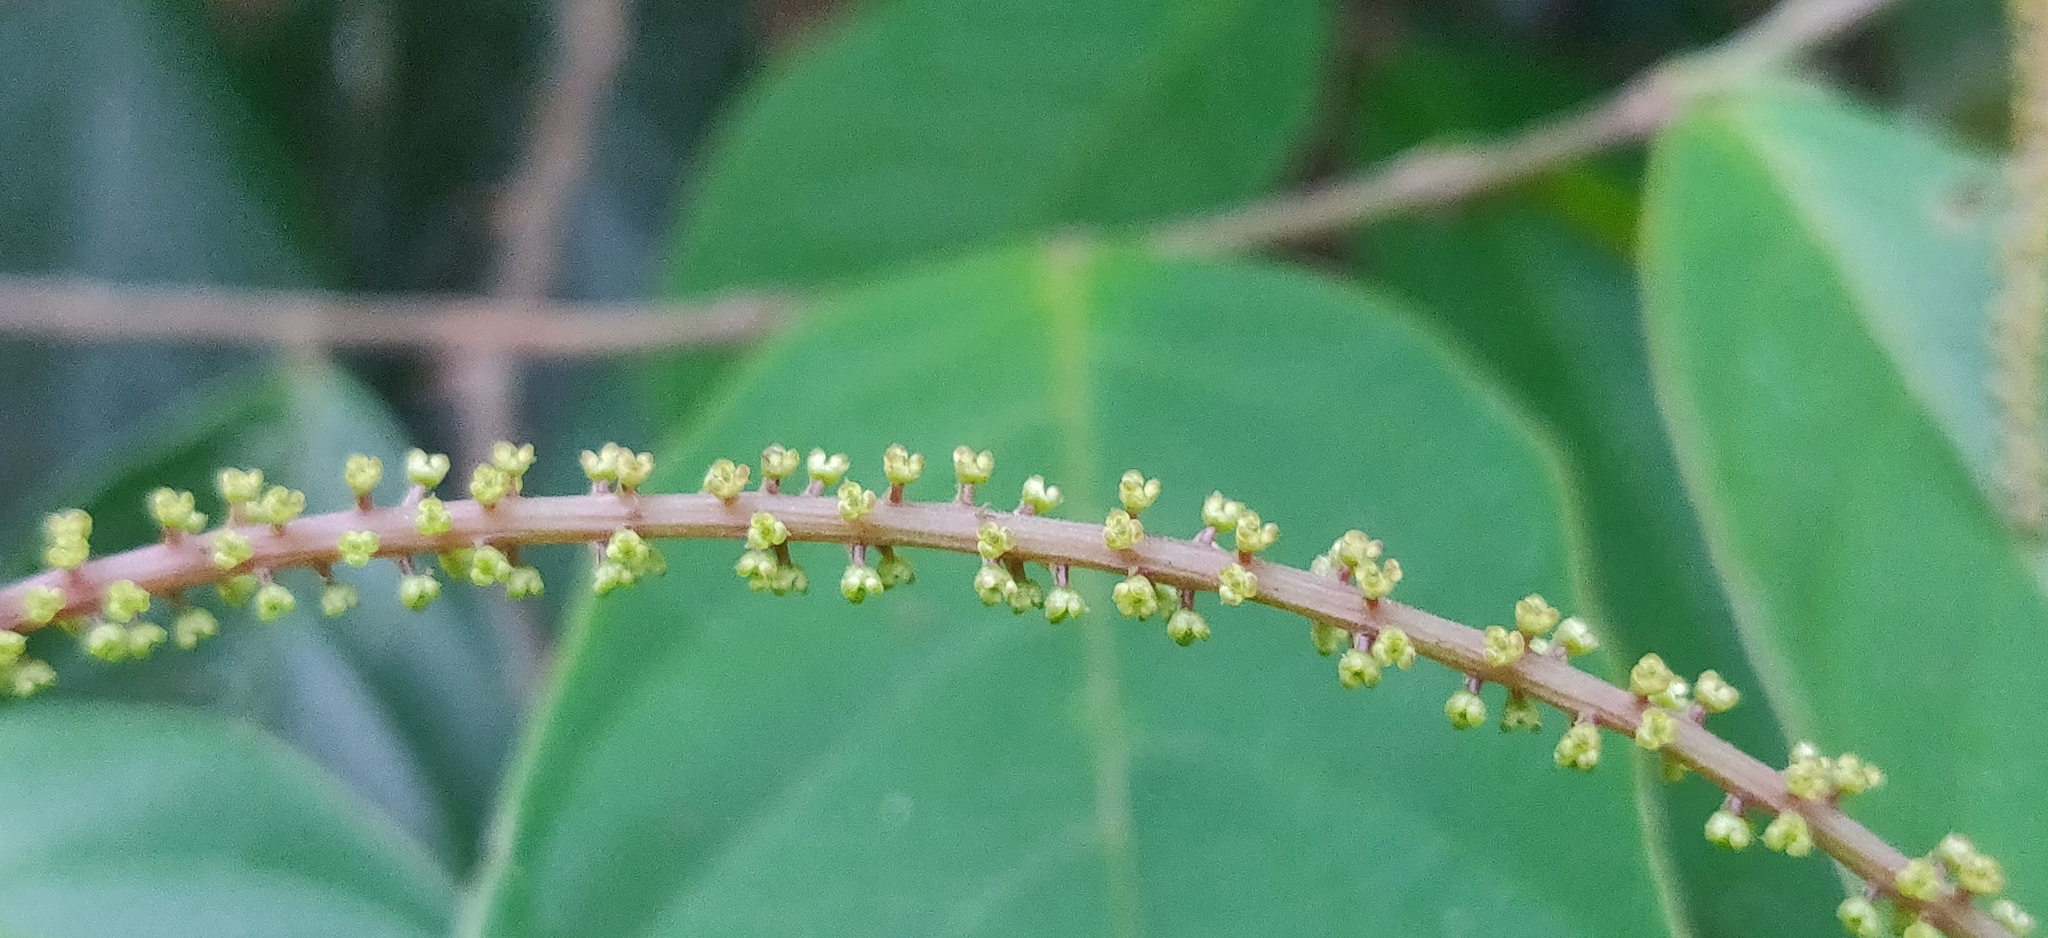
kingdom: Plantae
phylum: Tracheophyta
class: Magnoliopsida
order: Malpighiales
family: Phyllanthaceae
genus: Antidesma
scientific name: Antidesma montanum
